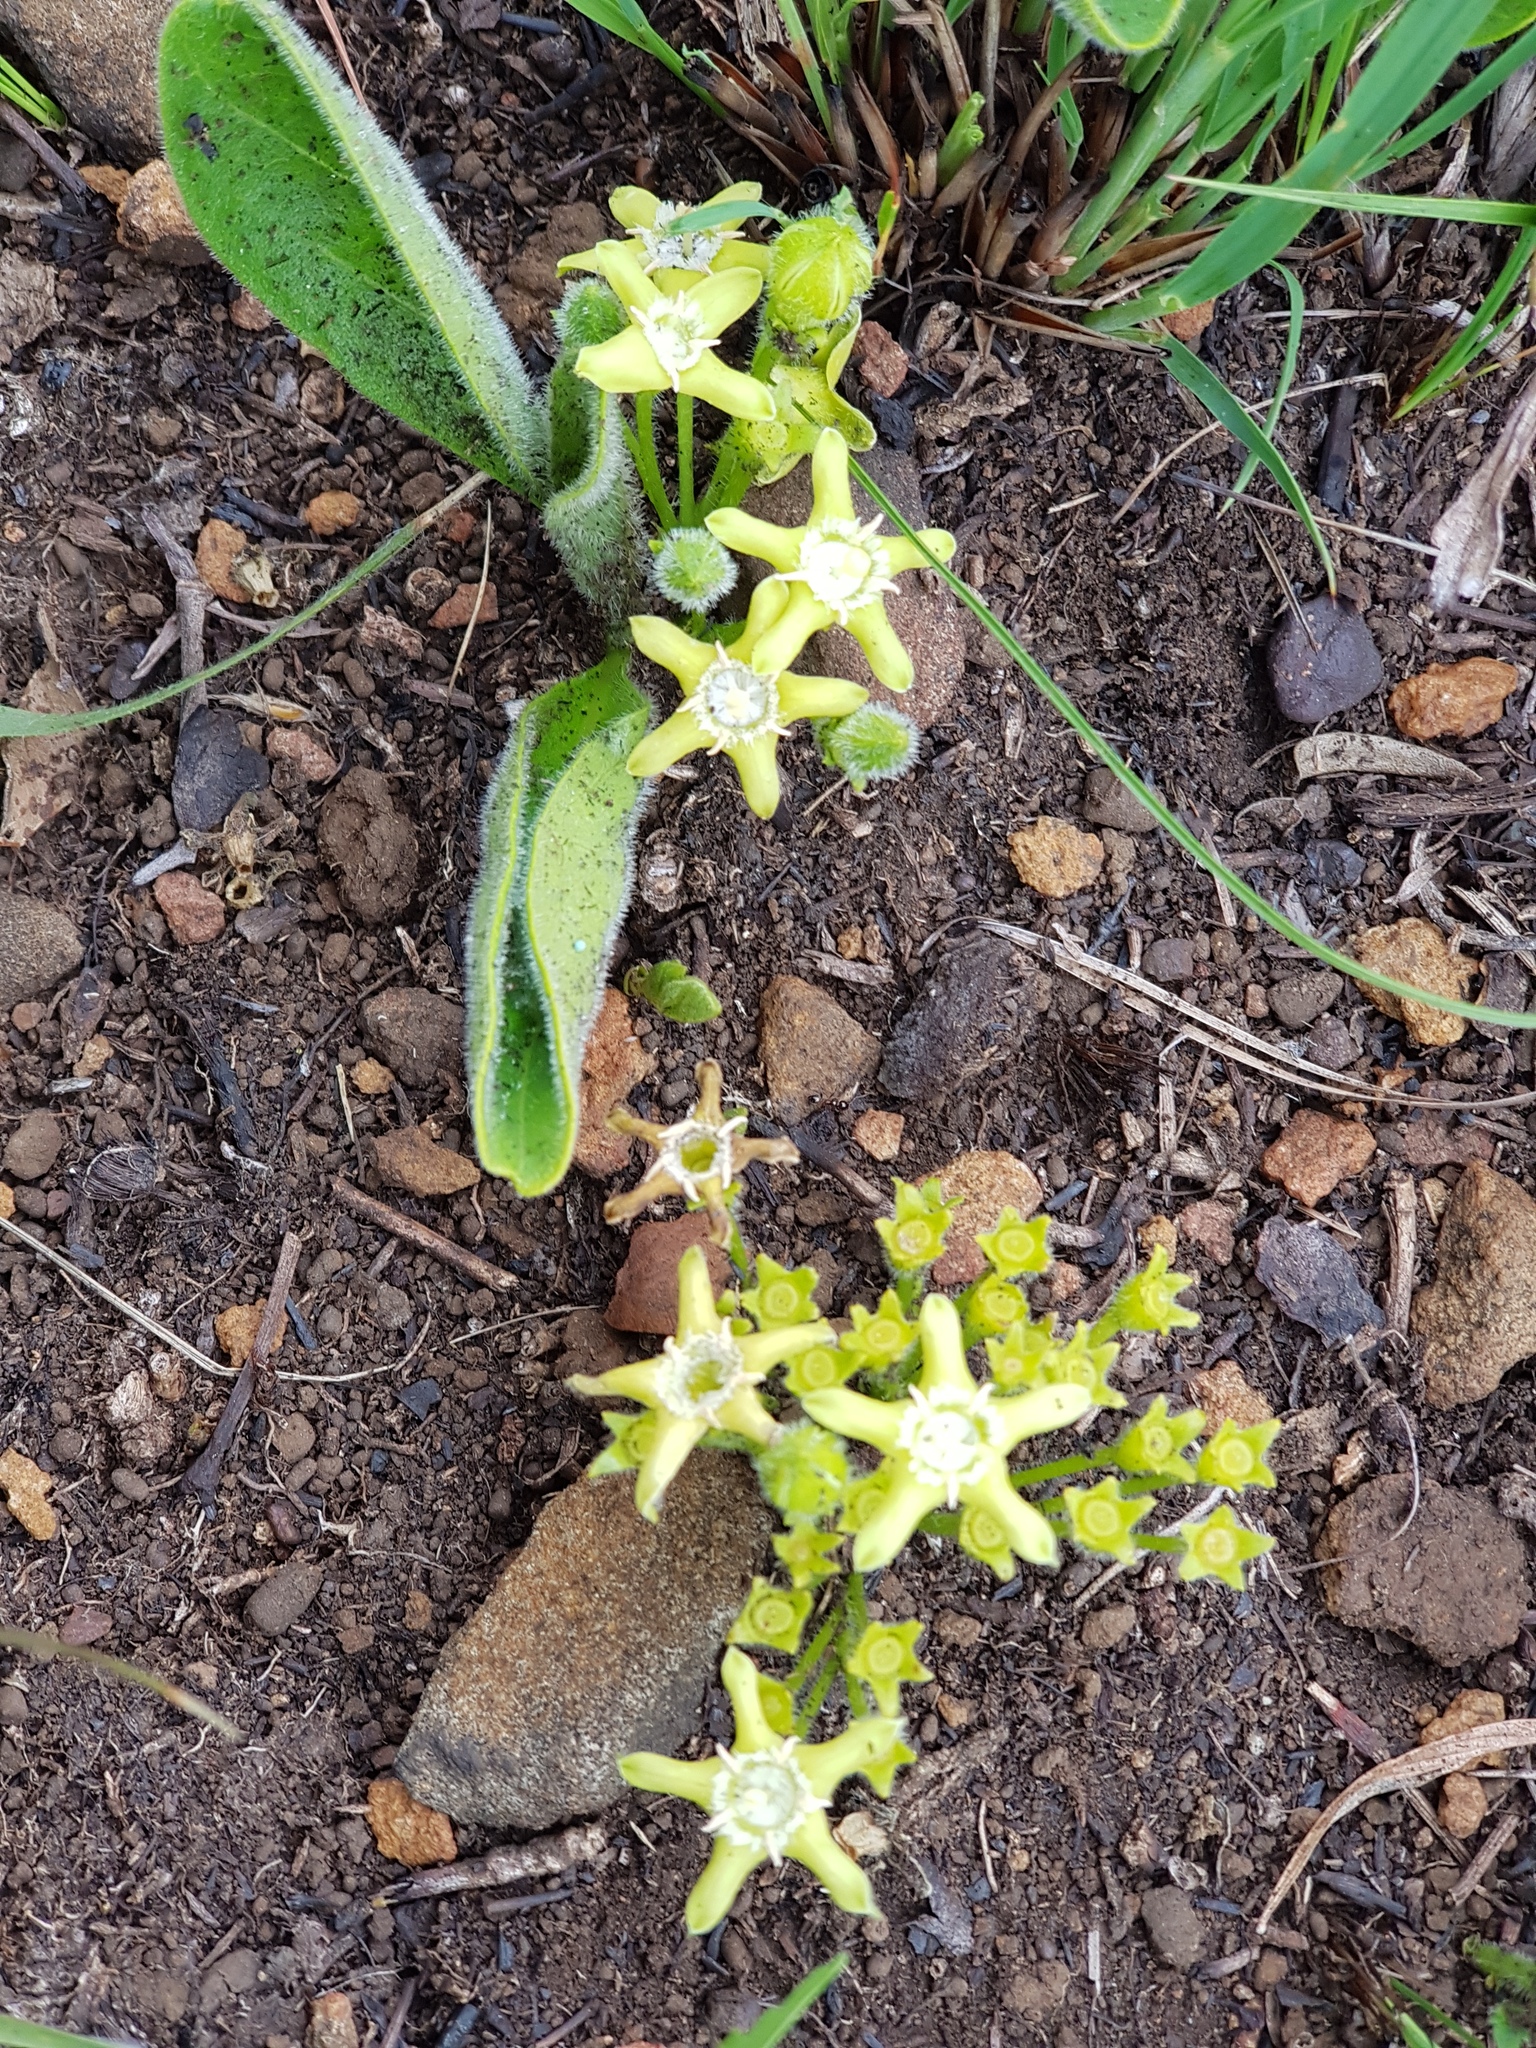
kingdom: Plantae
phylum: Tracheophyta
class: Magnoliopsida
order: Gentianales
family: Rubiaceae
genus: Bridsonia
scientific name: Bridsonia chamaedendrum
